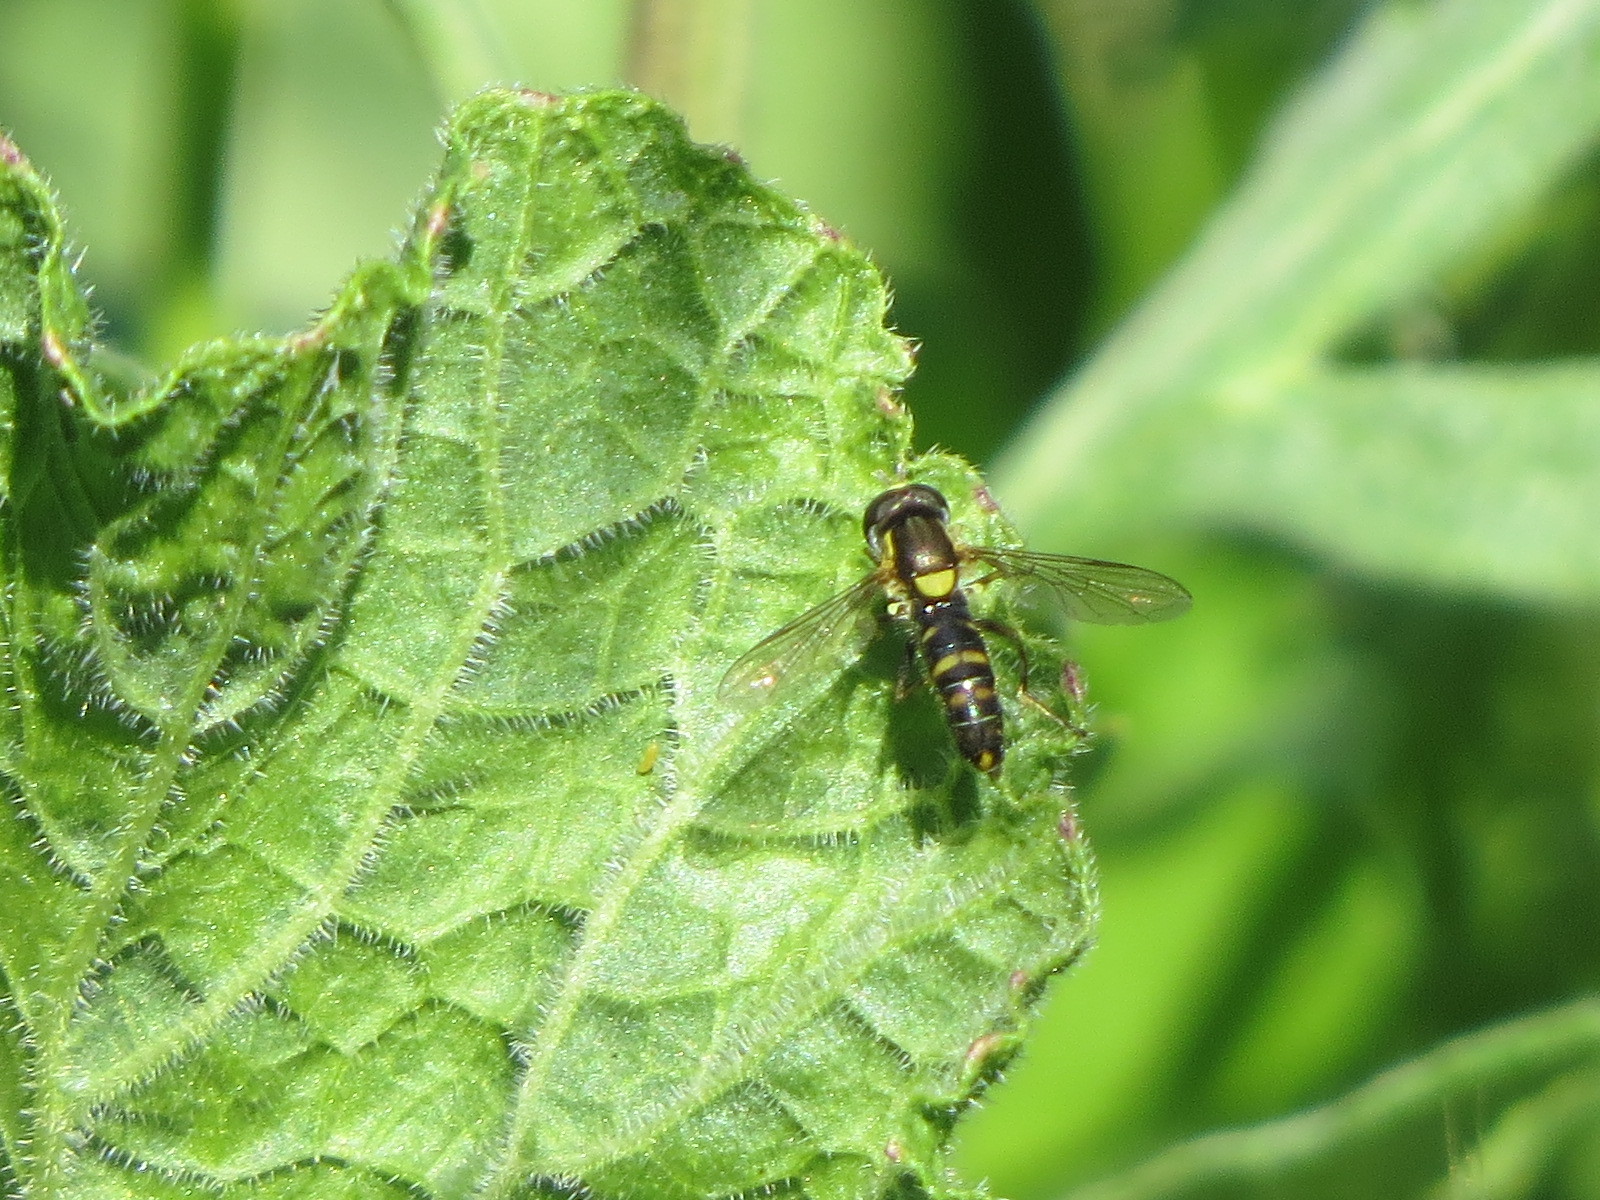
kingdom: Animalia
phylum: Arthropoda
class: Insecta
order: Diptera
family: Syrphidae
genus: Sphaerophoria
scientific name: Sphaerophoria sulphuripes
